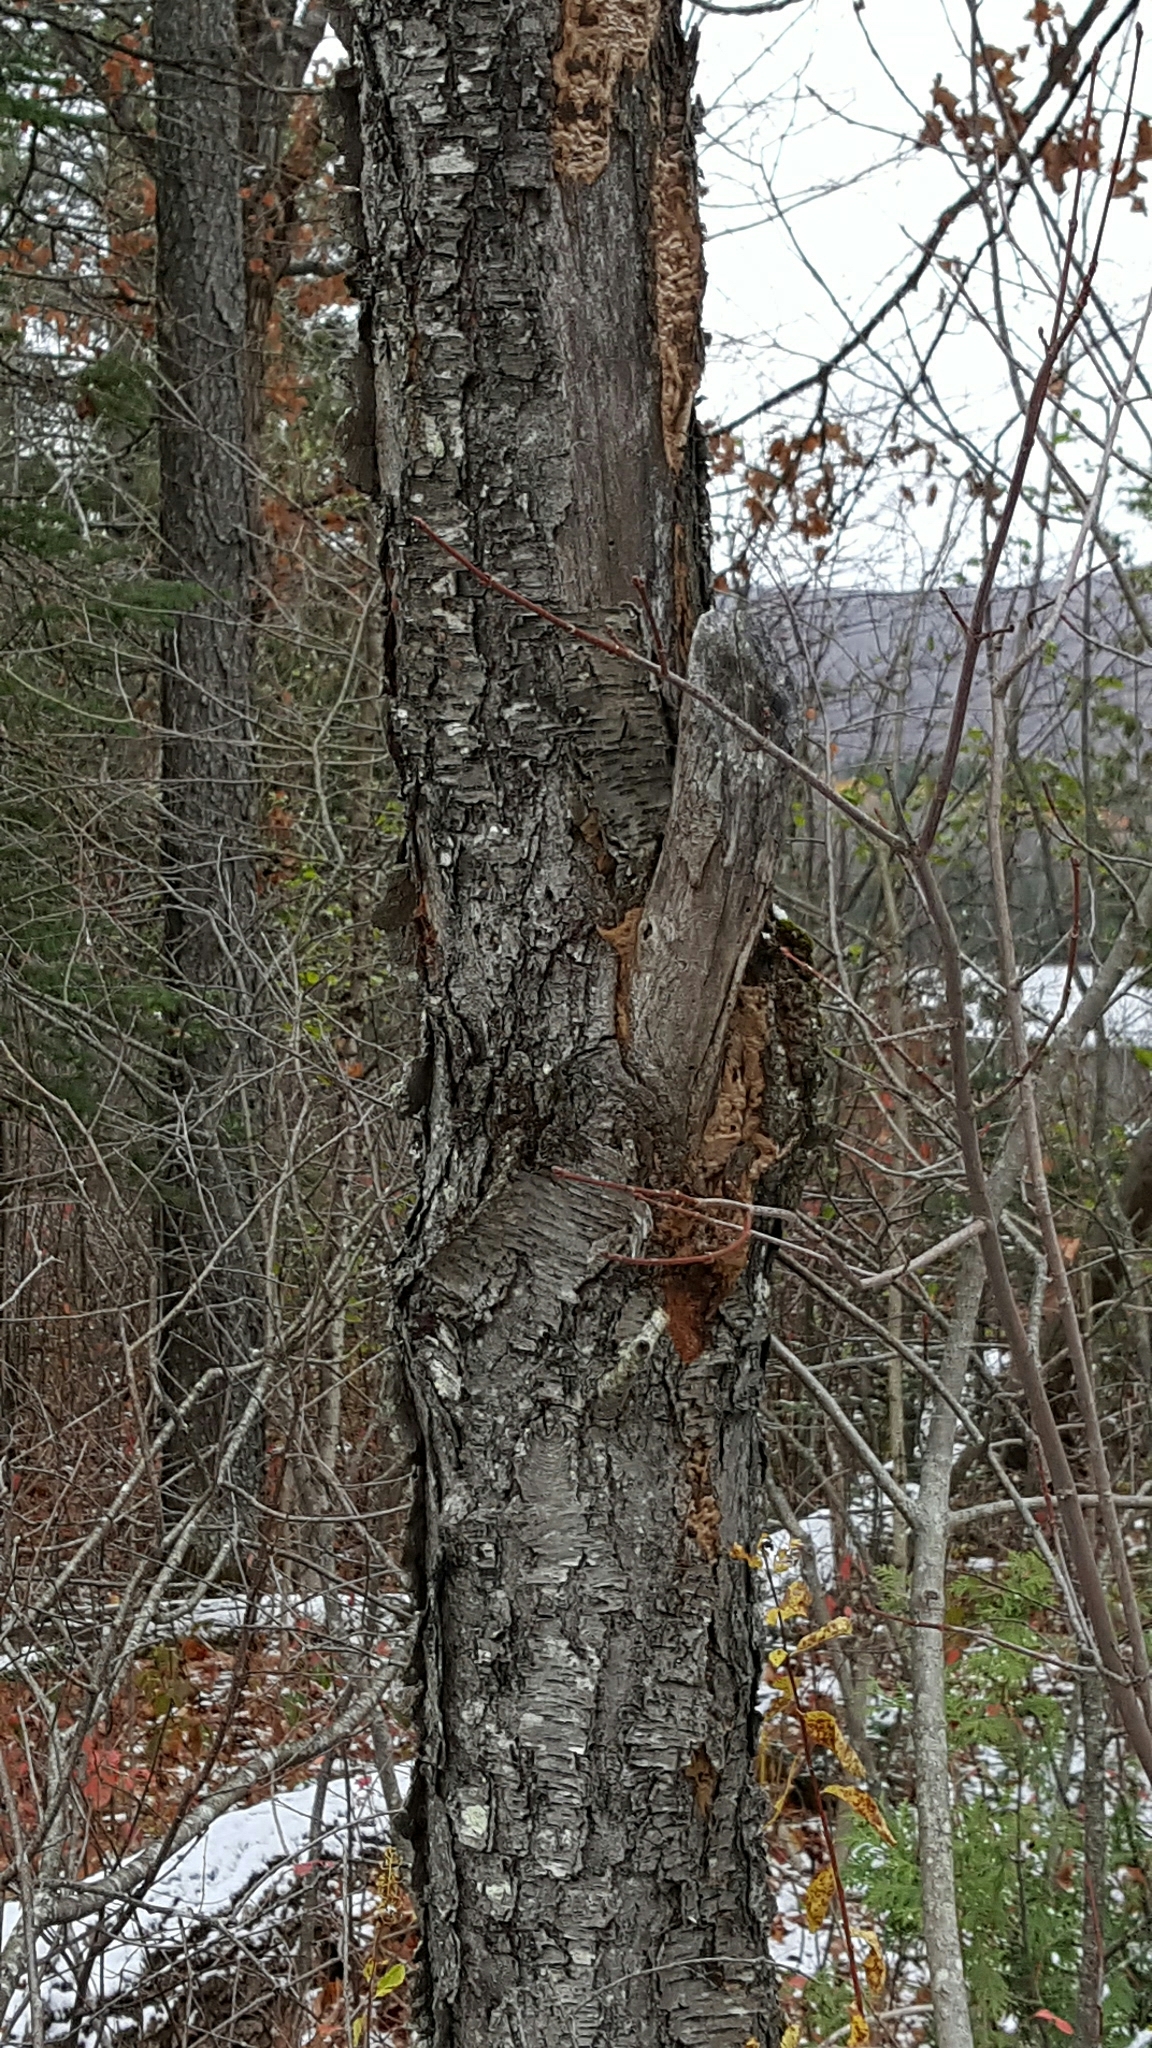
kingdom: Plantae
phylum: Tracheophyta
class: Magnoliopsida
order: Rosales
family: Rosaceae
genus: Prunus
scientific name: Prunus serotina
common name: Black cherry
